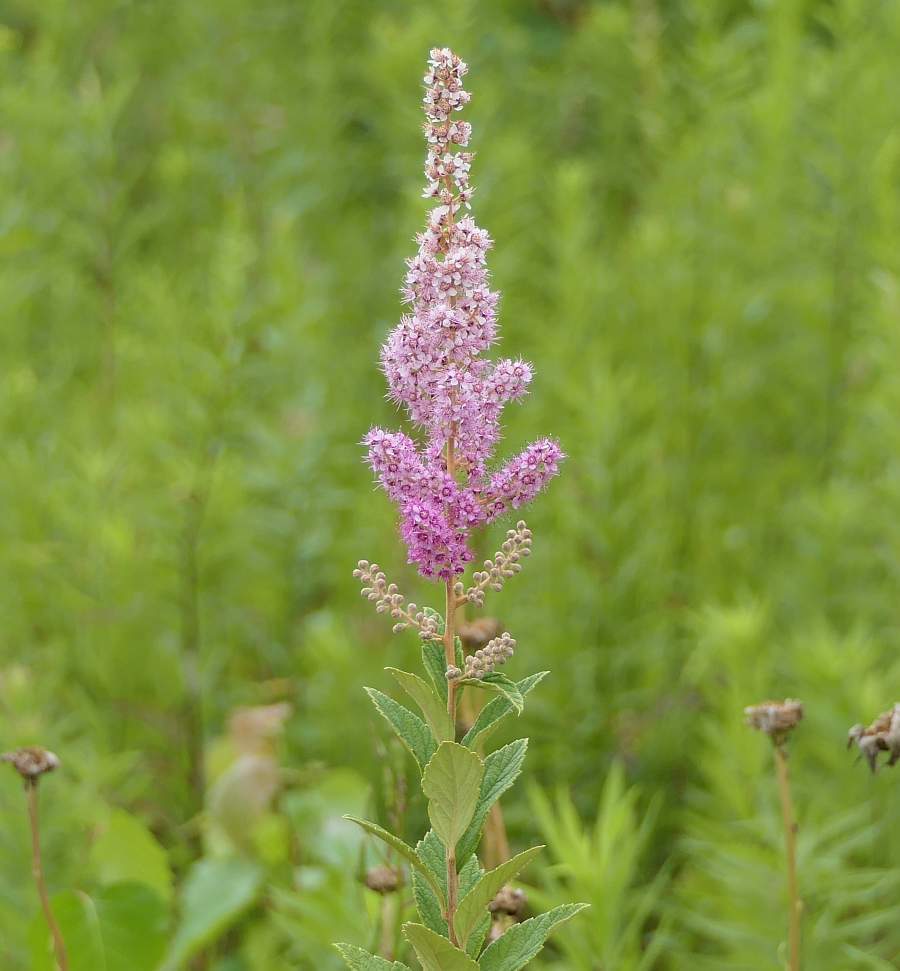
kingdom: Plantae
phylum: Tracheophyta
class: Magnoliopsida
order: Rosales
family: Rosaceae
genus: Spiraea
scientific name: Spiraea tomentosa
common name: Hardhack
